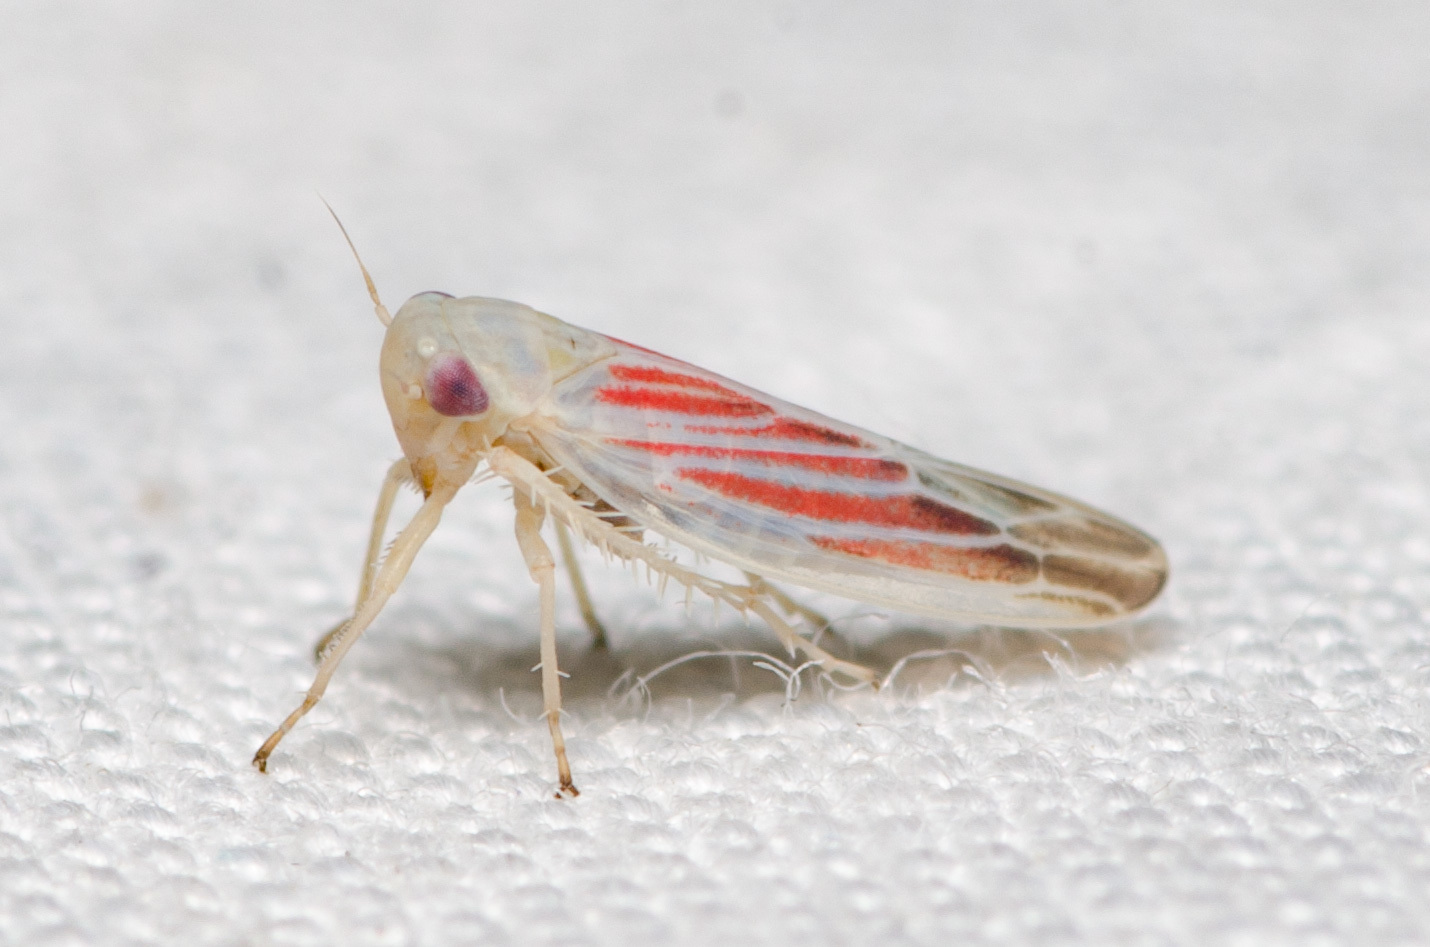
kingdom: Animalia
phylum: Arthropoda
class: Insecta
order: Hemiptera
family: Cicadellidae
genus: Balclutha
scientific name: Balclutha rubrostriata
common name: Red-streaked leafhopper
